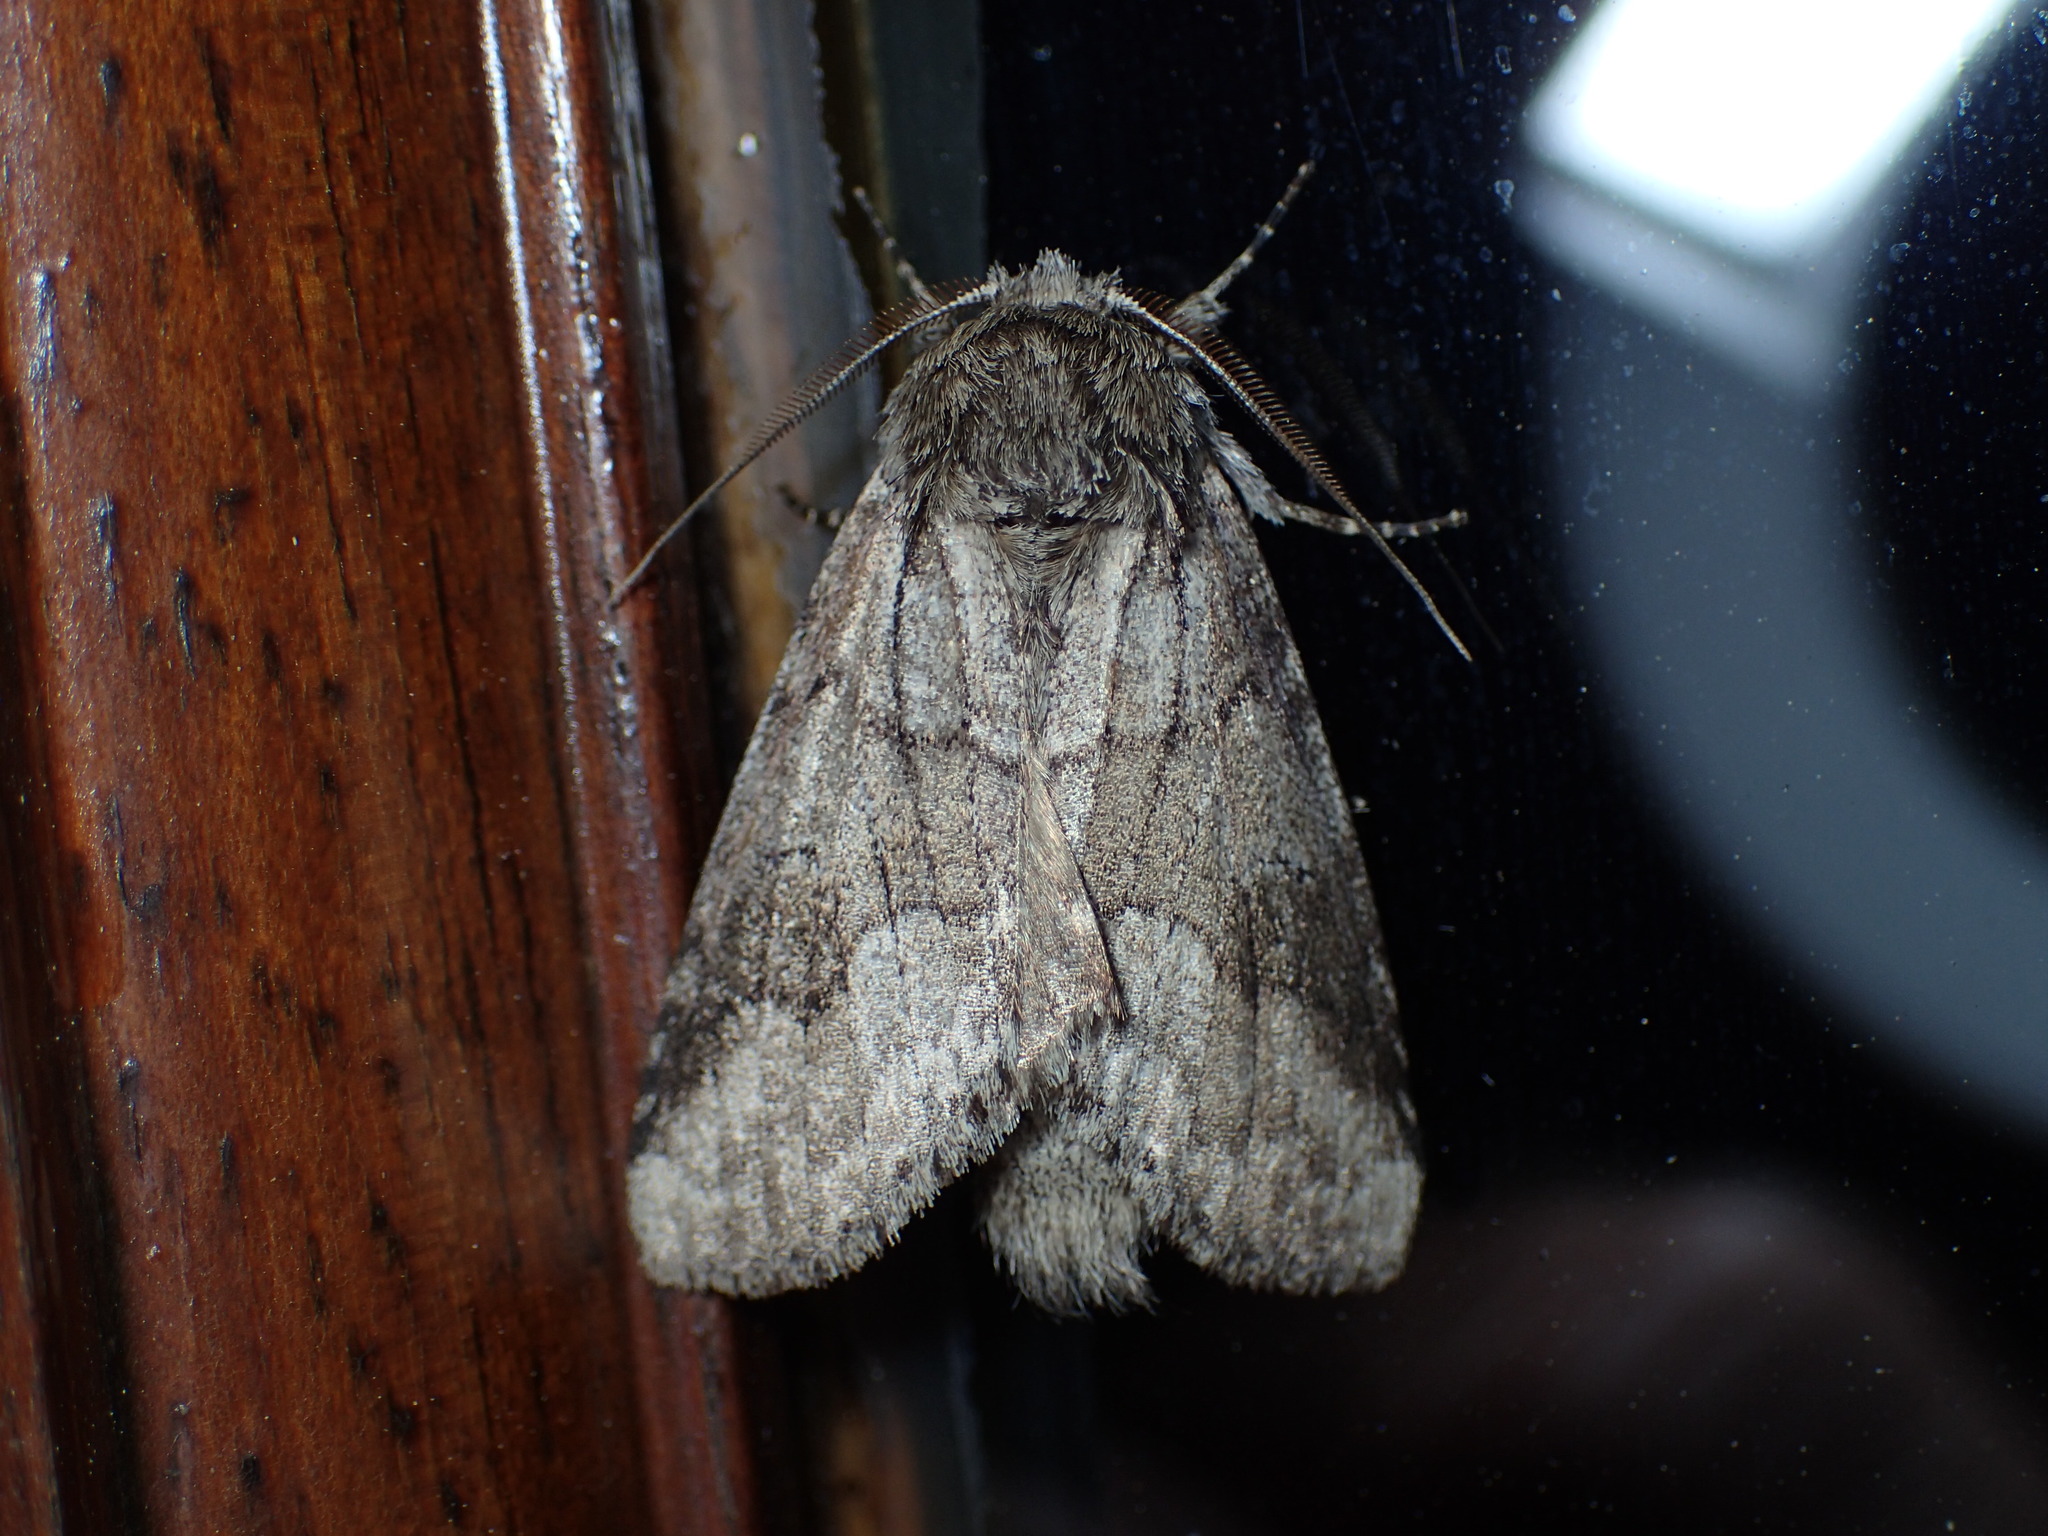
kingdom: Animalia
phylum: Arthropoda
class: Insecta
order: Lepidoptera
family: Notodontidae
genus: Lochmaeus
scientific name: Lochmaeus bilineata
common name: Double-lined prominent
